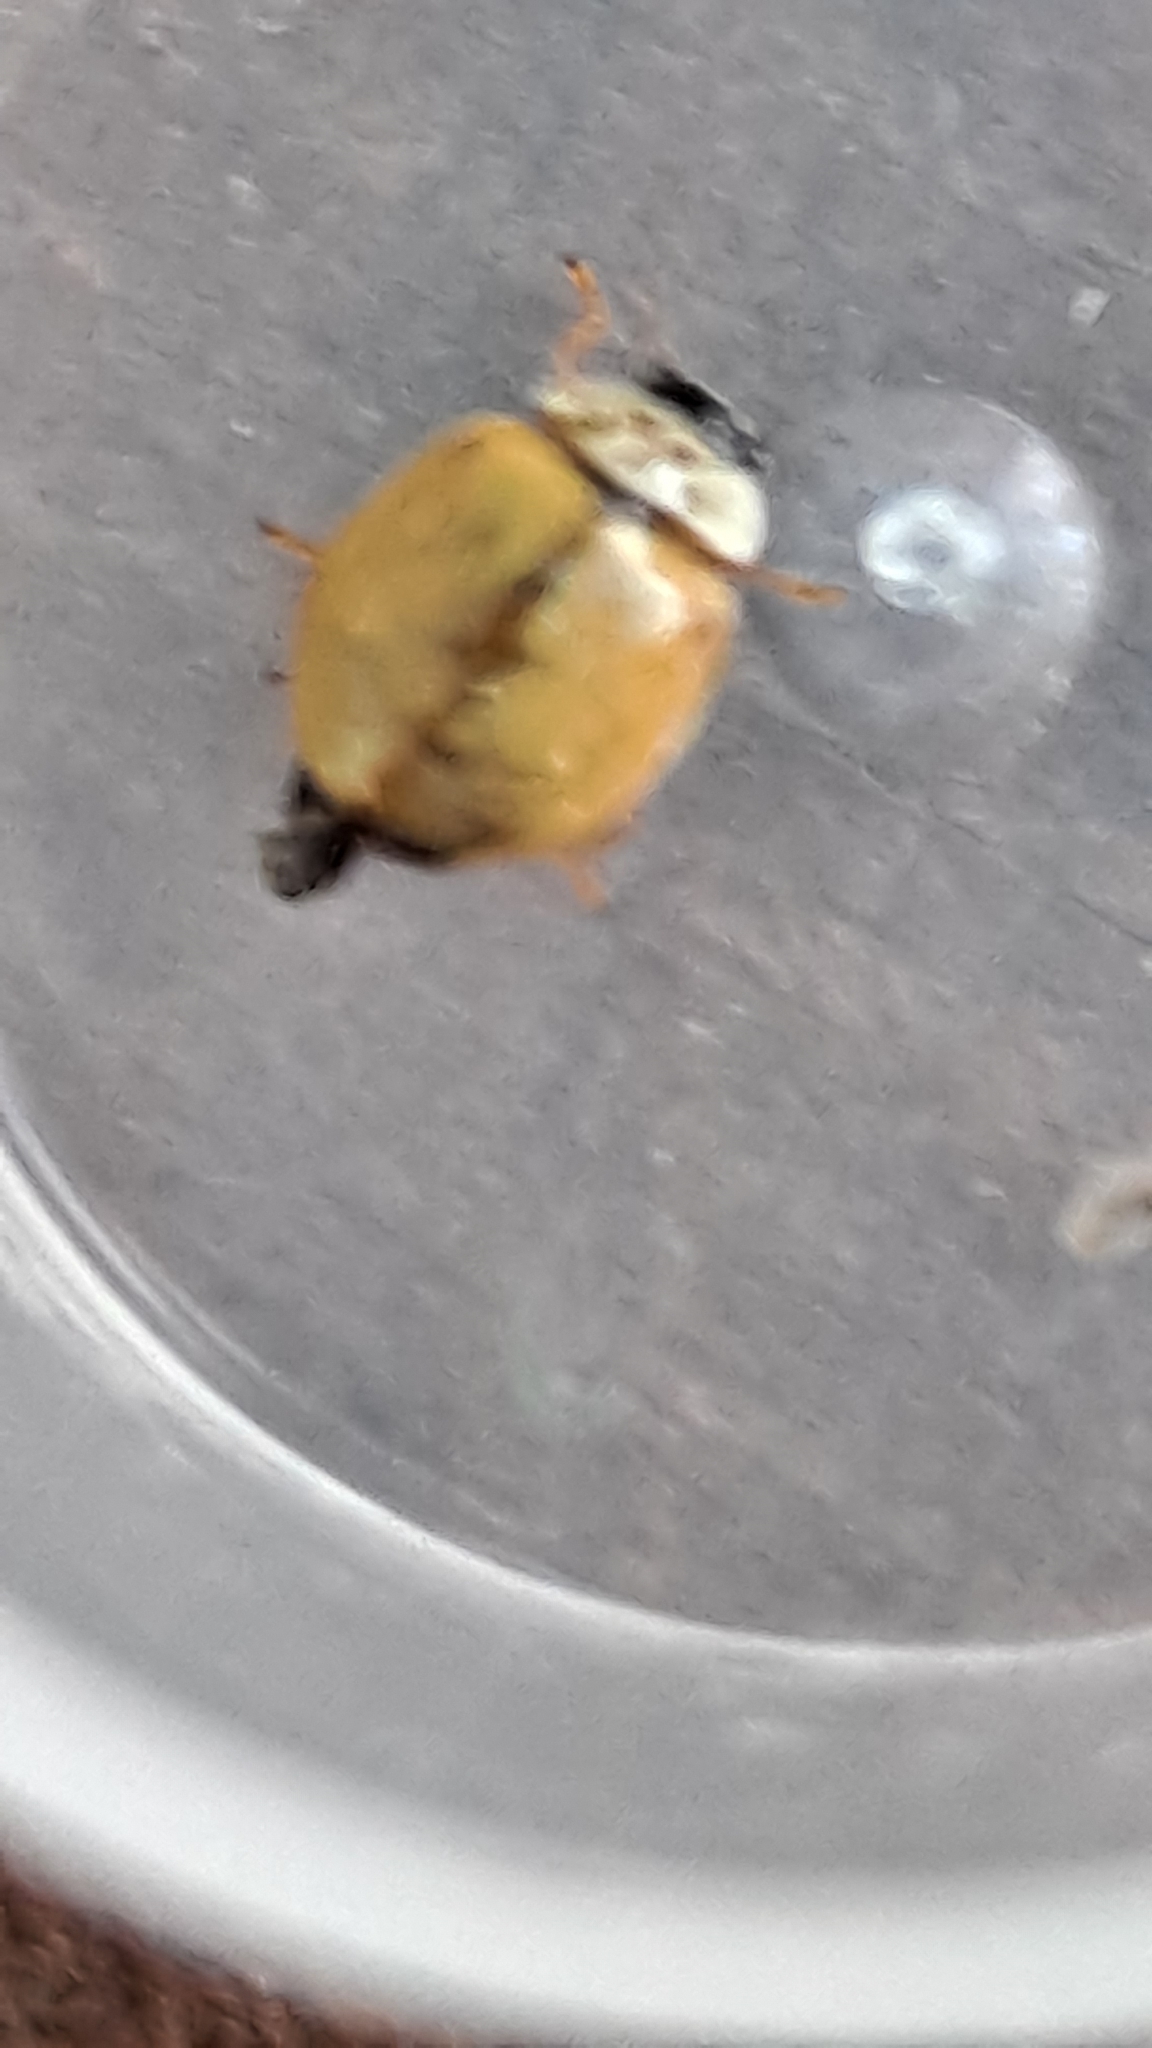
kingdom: Animalia
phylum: Arthropoda
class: Insecta
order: Coleoptera
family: Coccinellidae
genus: Adalia
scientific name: Adalia decempunctata
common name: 10-spot ladybird
